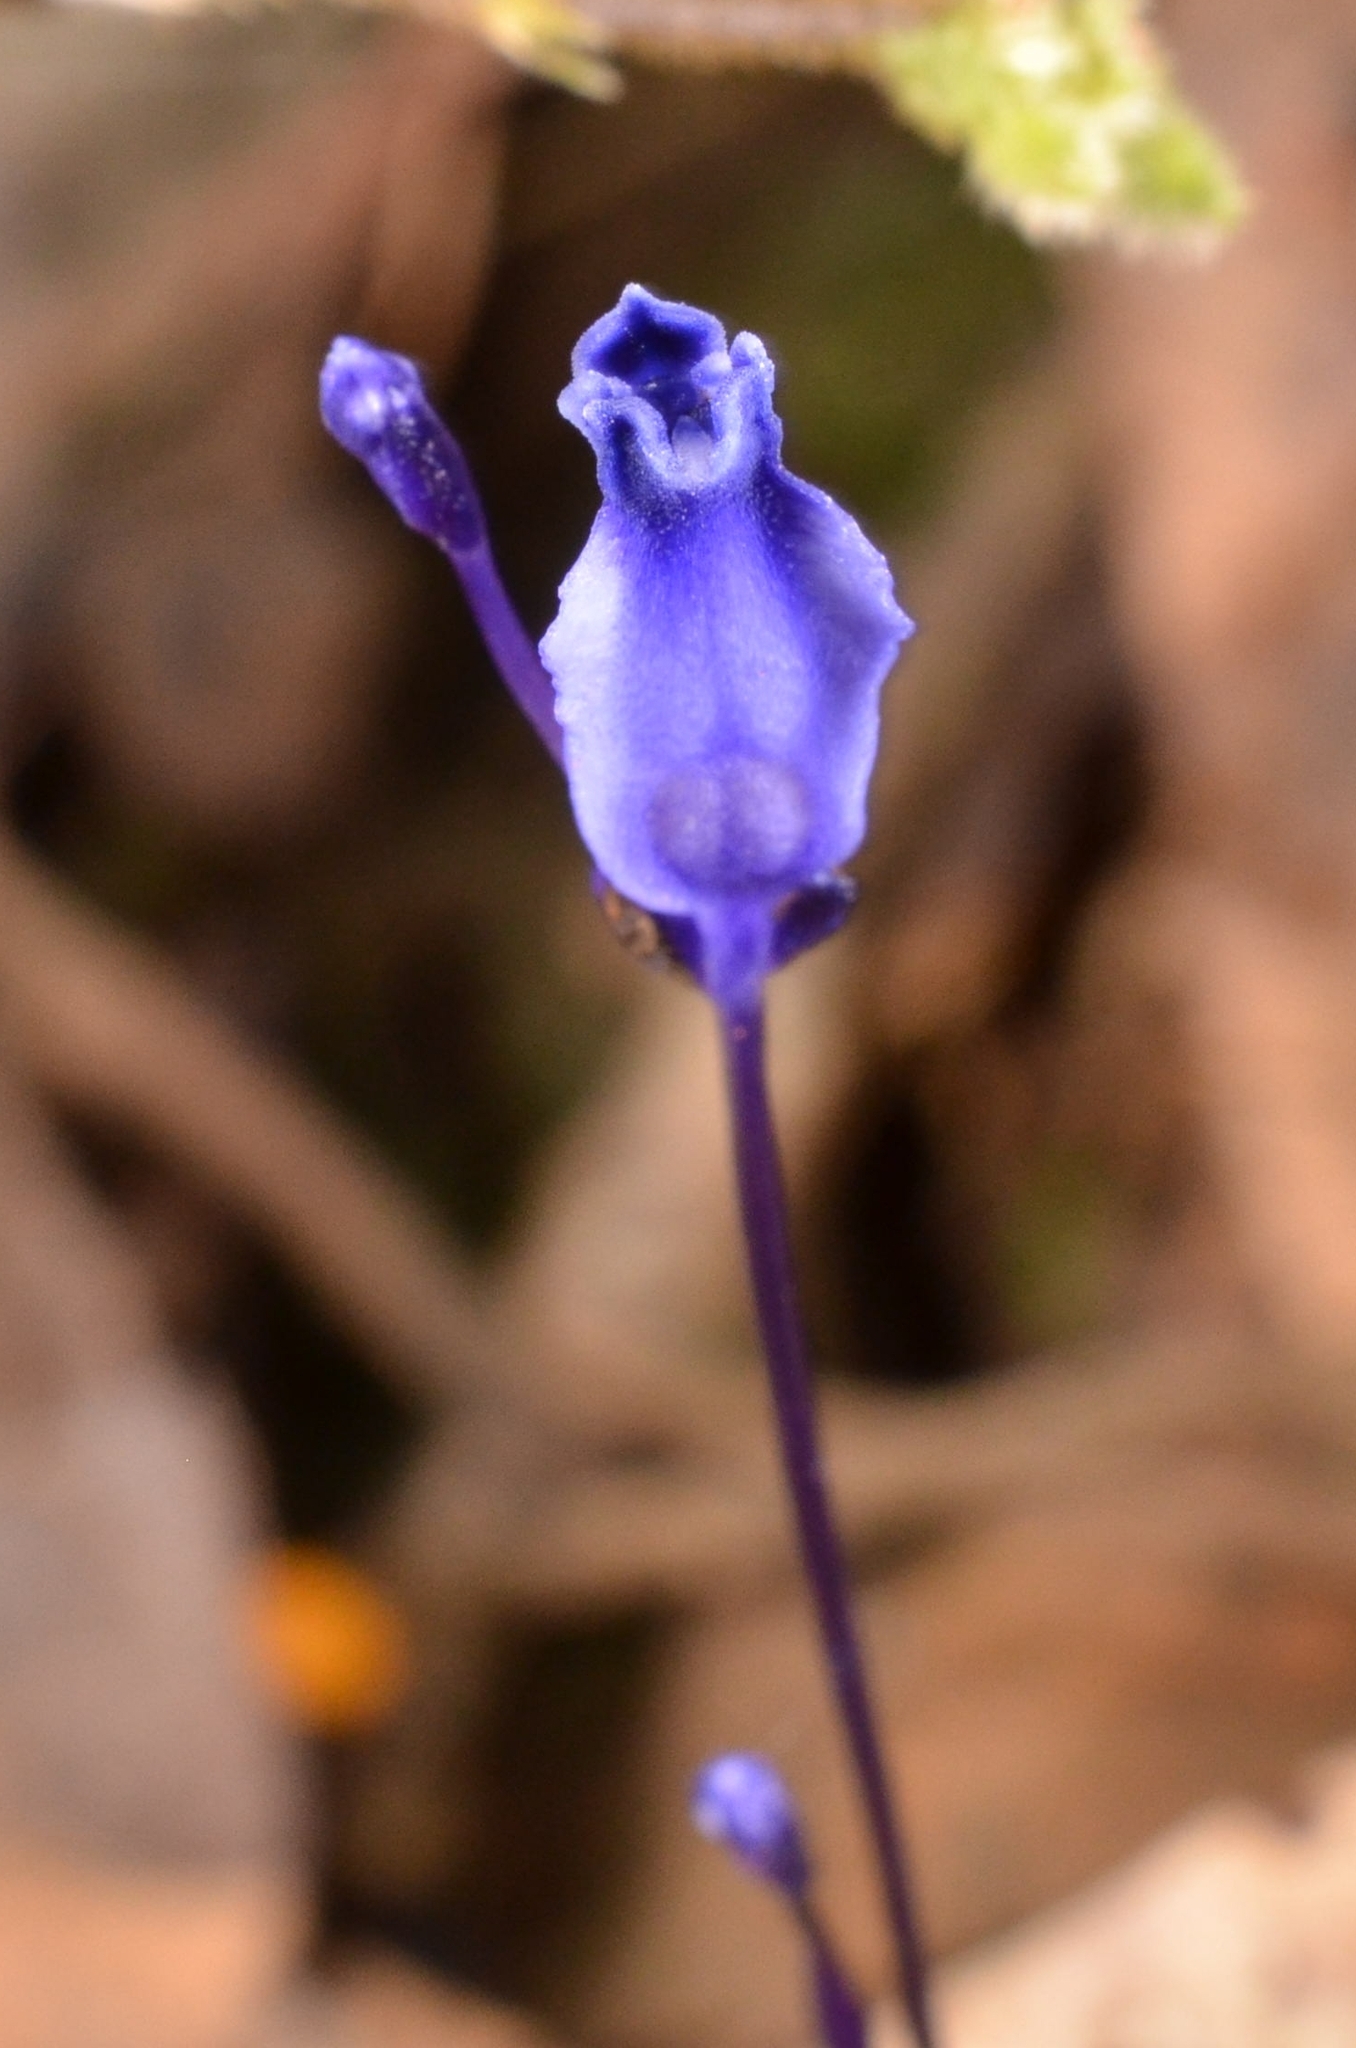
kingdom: Plantae
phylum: Tracheophyta
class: Liliopsida
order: Dioscoreales
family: Burmanniaceae
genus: Burmannia
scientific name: Burmannia wallichii
